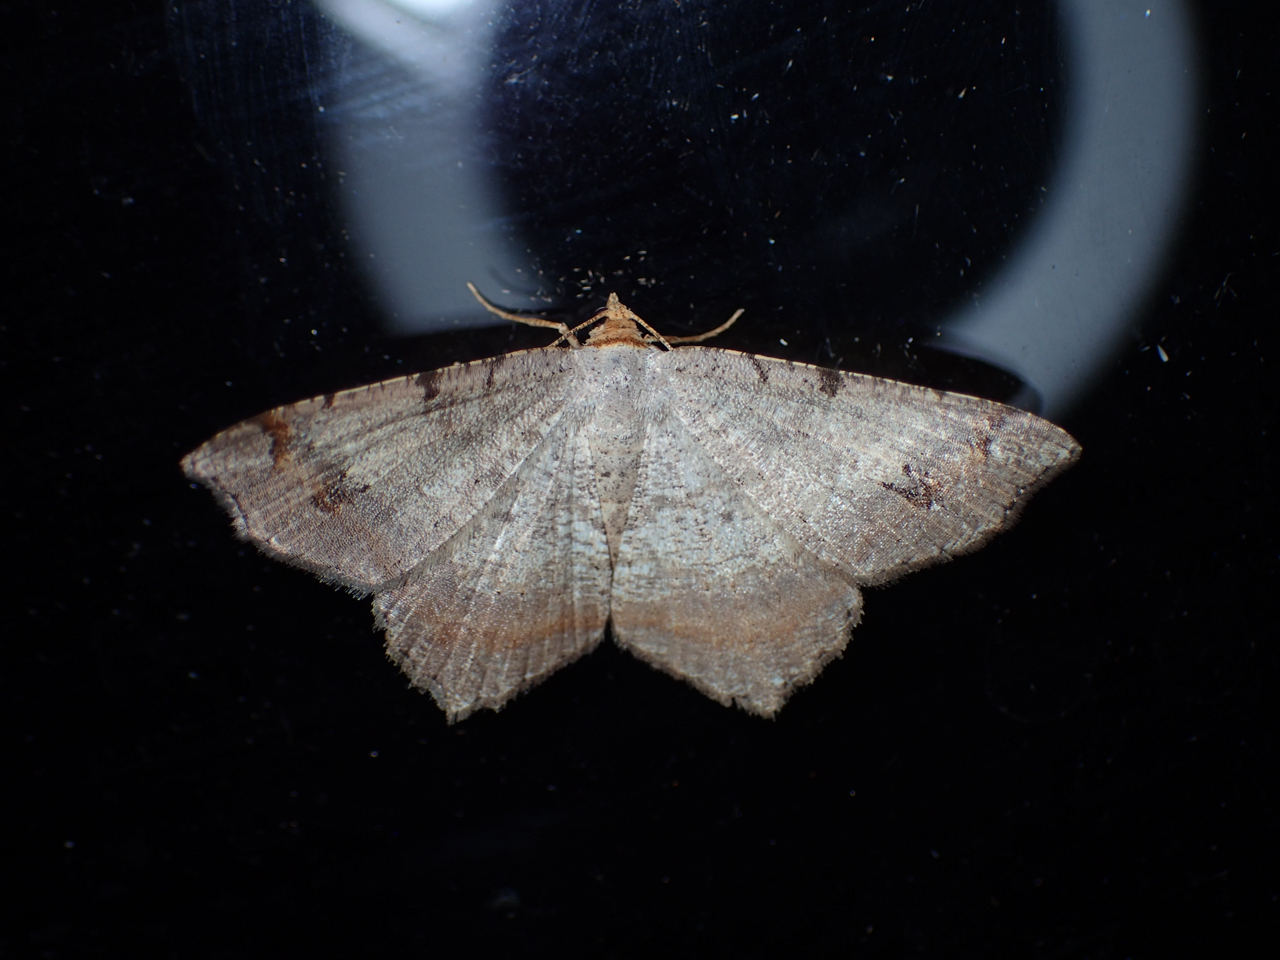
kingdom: Animalia
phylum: Arthropoda
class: Insecta
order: Lepidoptera
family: Geometridae
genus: Macaria
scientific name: Macaria transitaria
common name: Blurry chocolate angle
